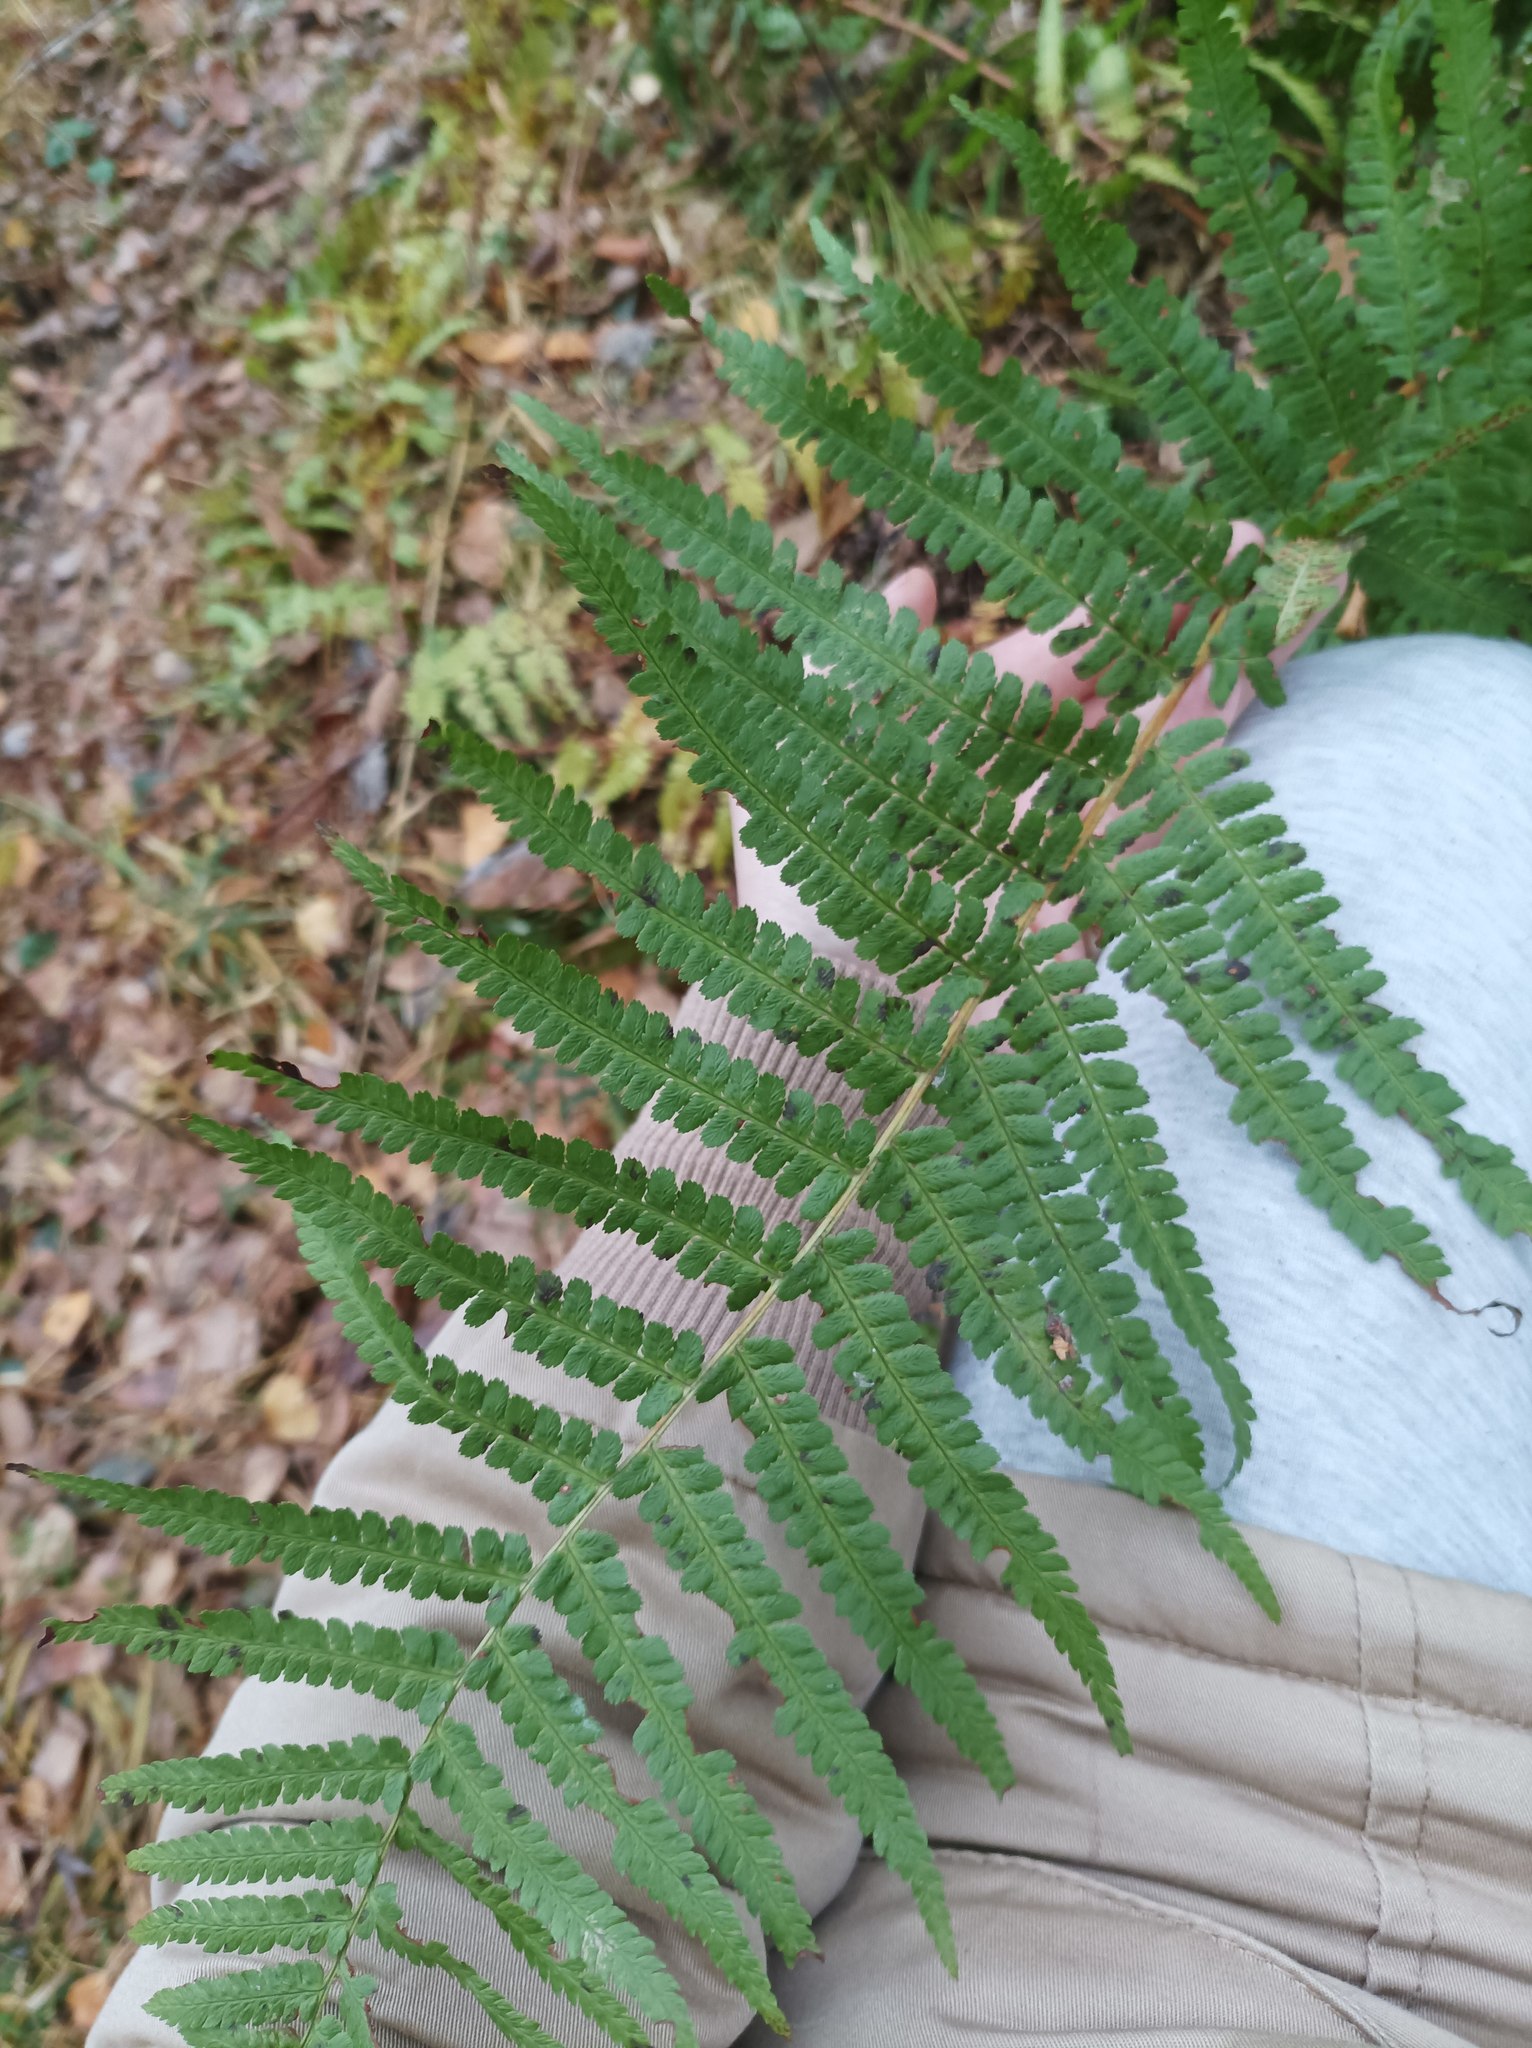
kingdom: Plantae
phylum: Tracheophyta
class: Polypodiopsida
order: Polypodiales
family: Dryopteridaceae
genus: Dryopteris
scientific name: Dryopteris filix-mas
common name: Male fern
